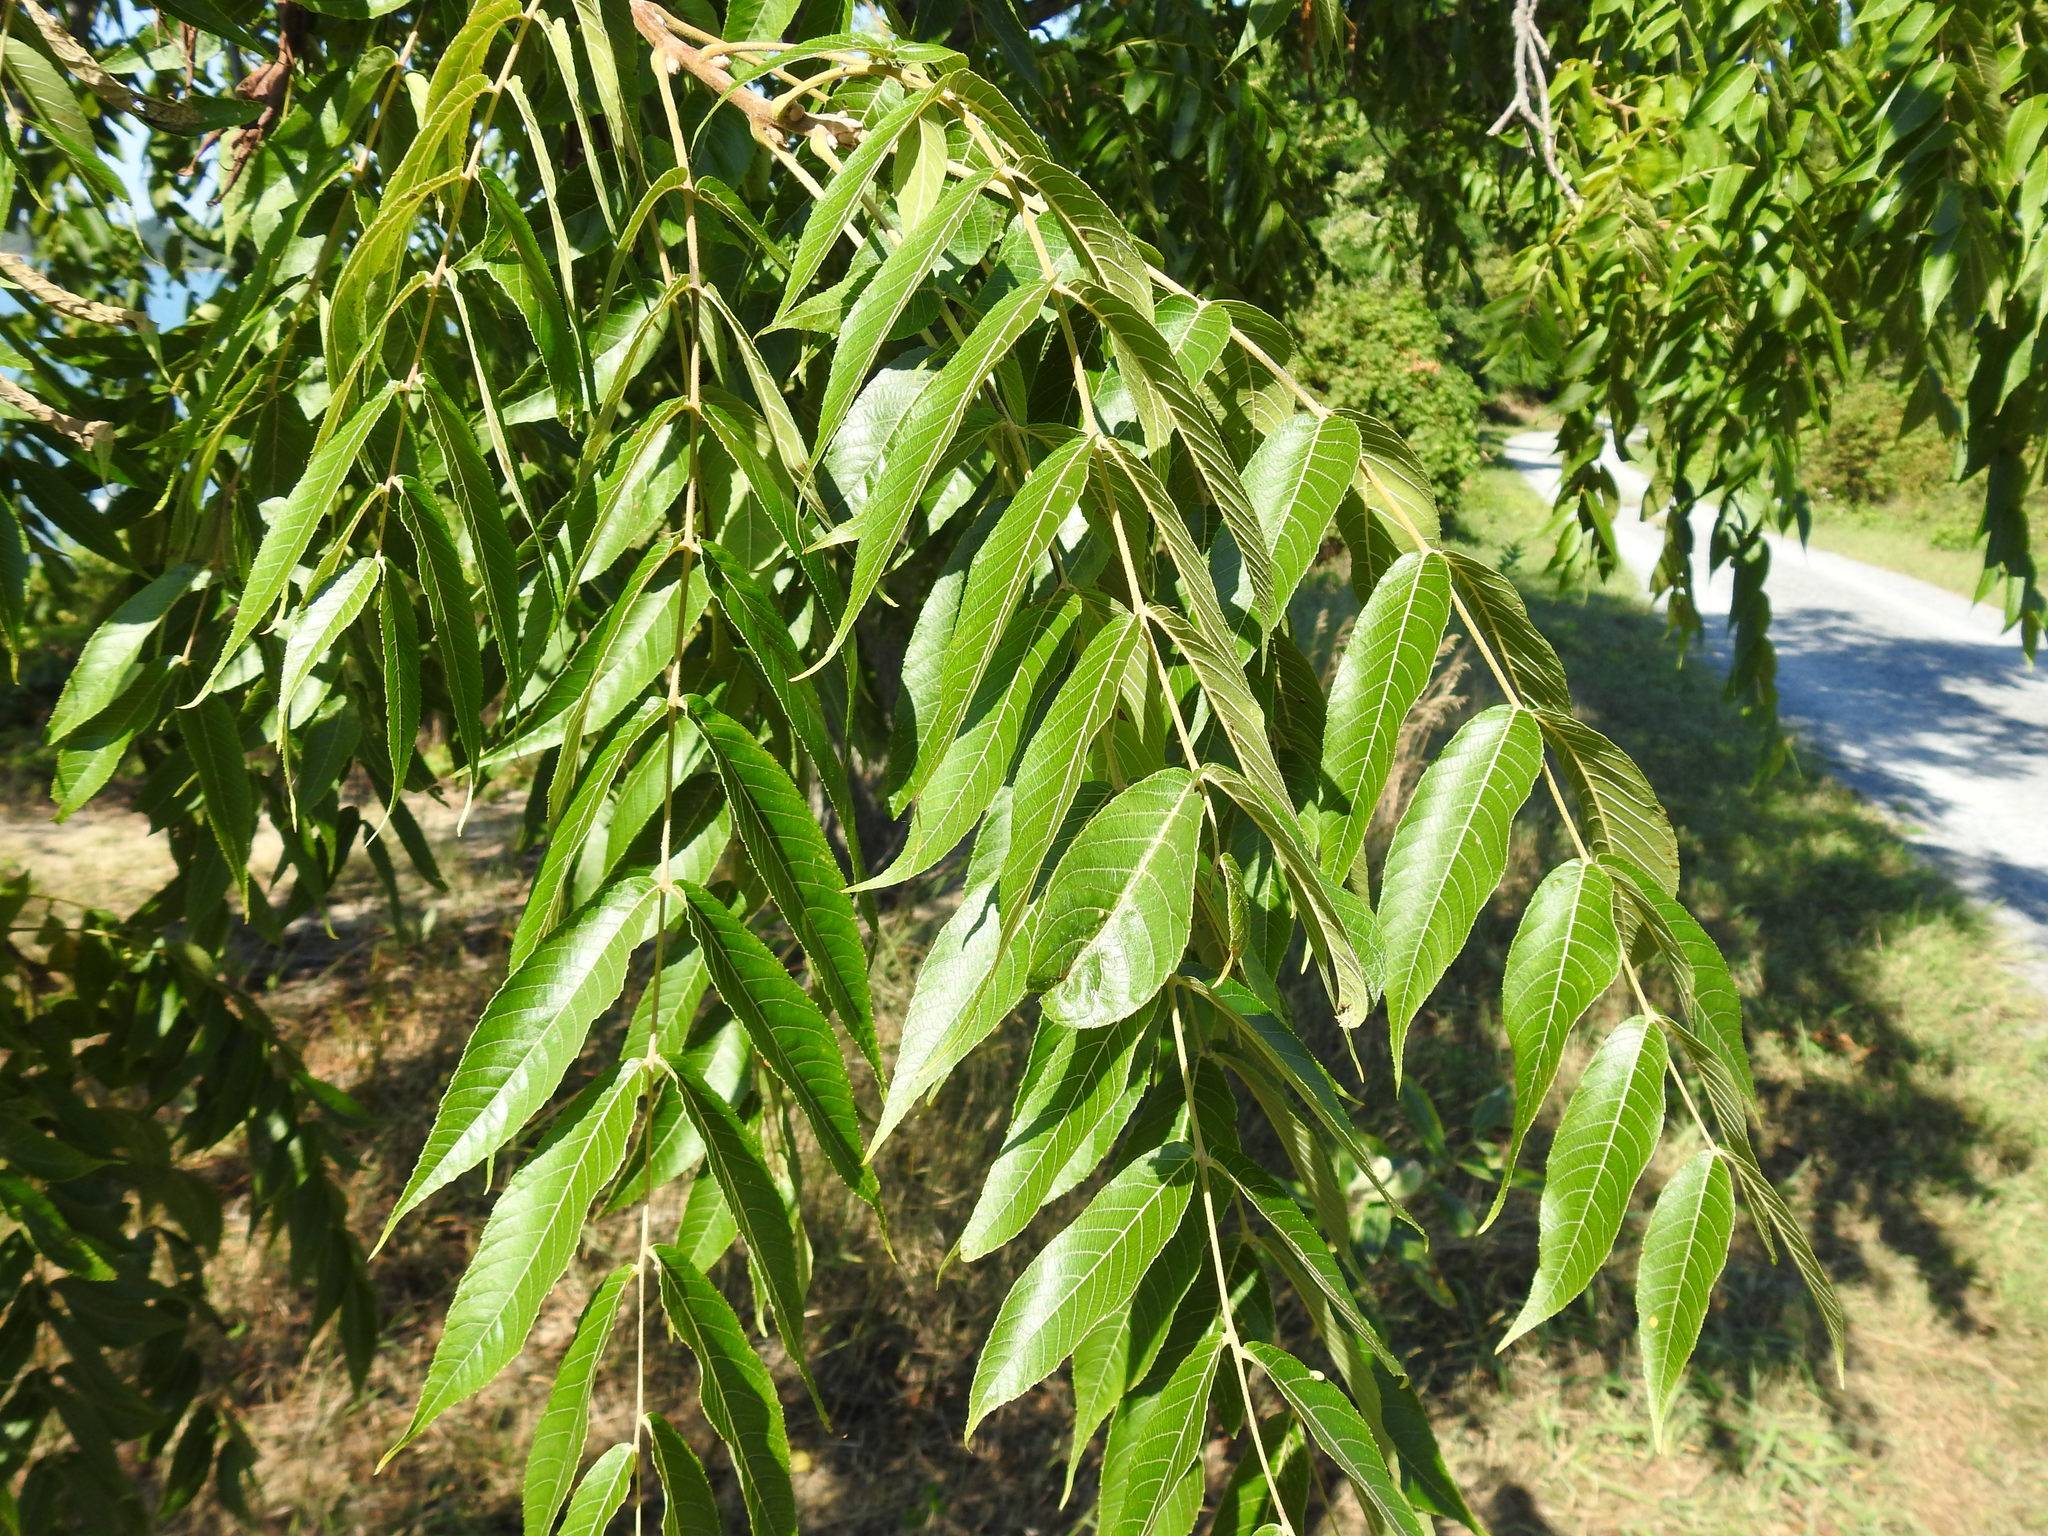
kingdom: Plantae
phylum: Tracheophyta
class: Magnoliopsida
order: Fagales
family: Juglandaceae
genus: Juglans
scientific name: Juglans nigra
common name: Black walnut
